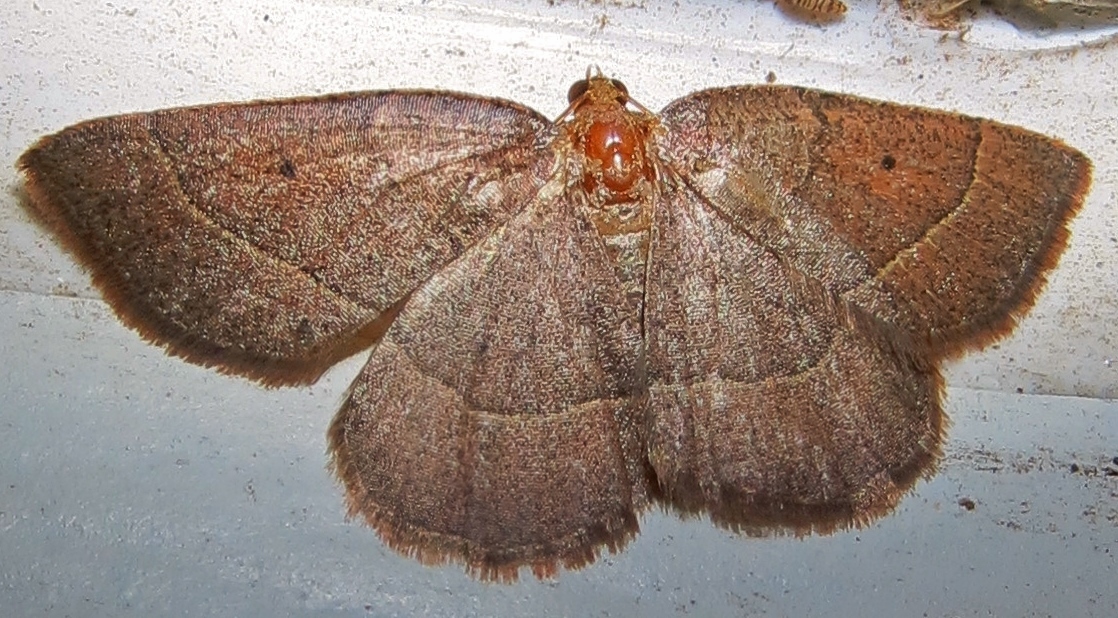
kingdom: Animalia
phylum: Arthropoda
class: Insecta
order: Lepidoptera
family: Geometridae
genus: Episemasia
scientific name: Episemasia cervinaria
